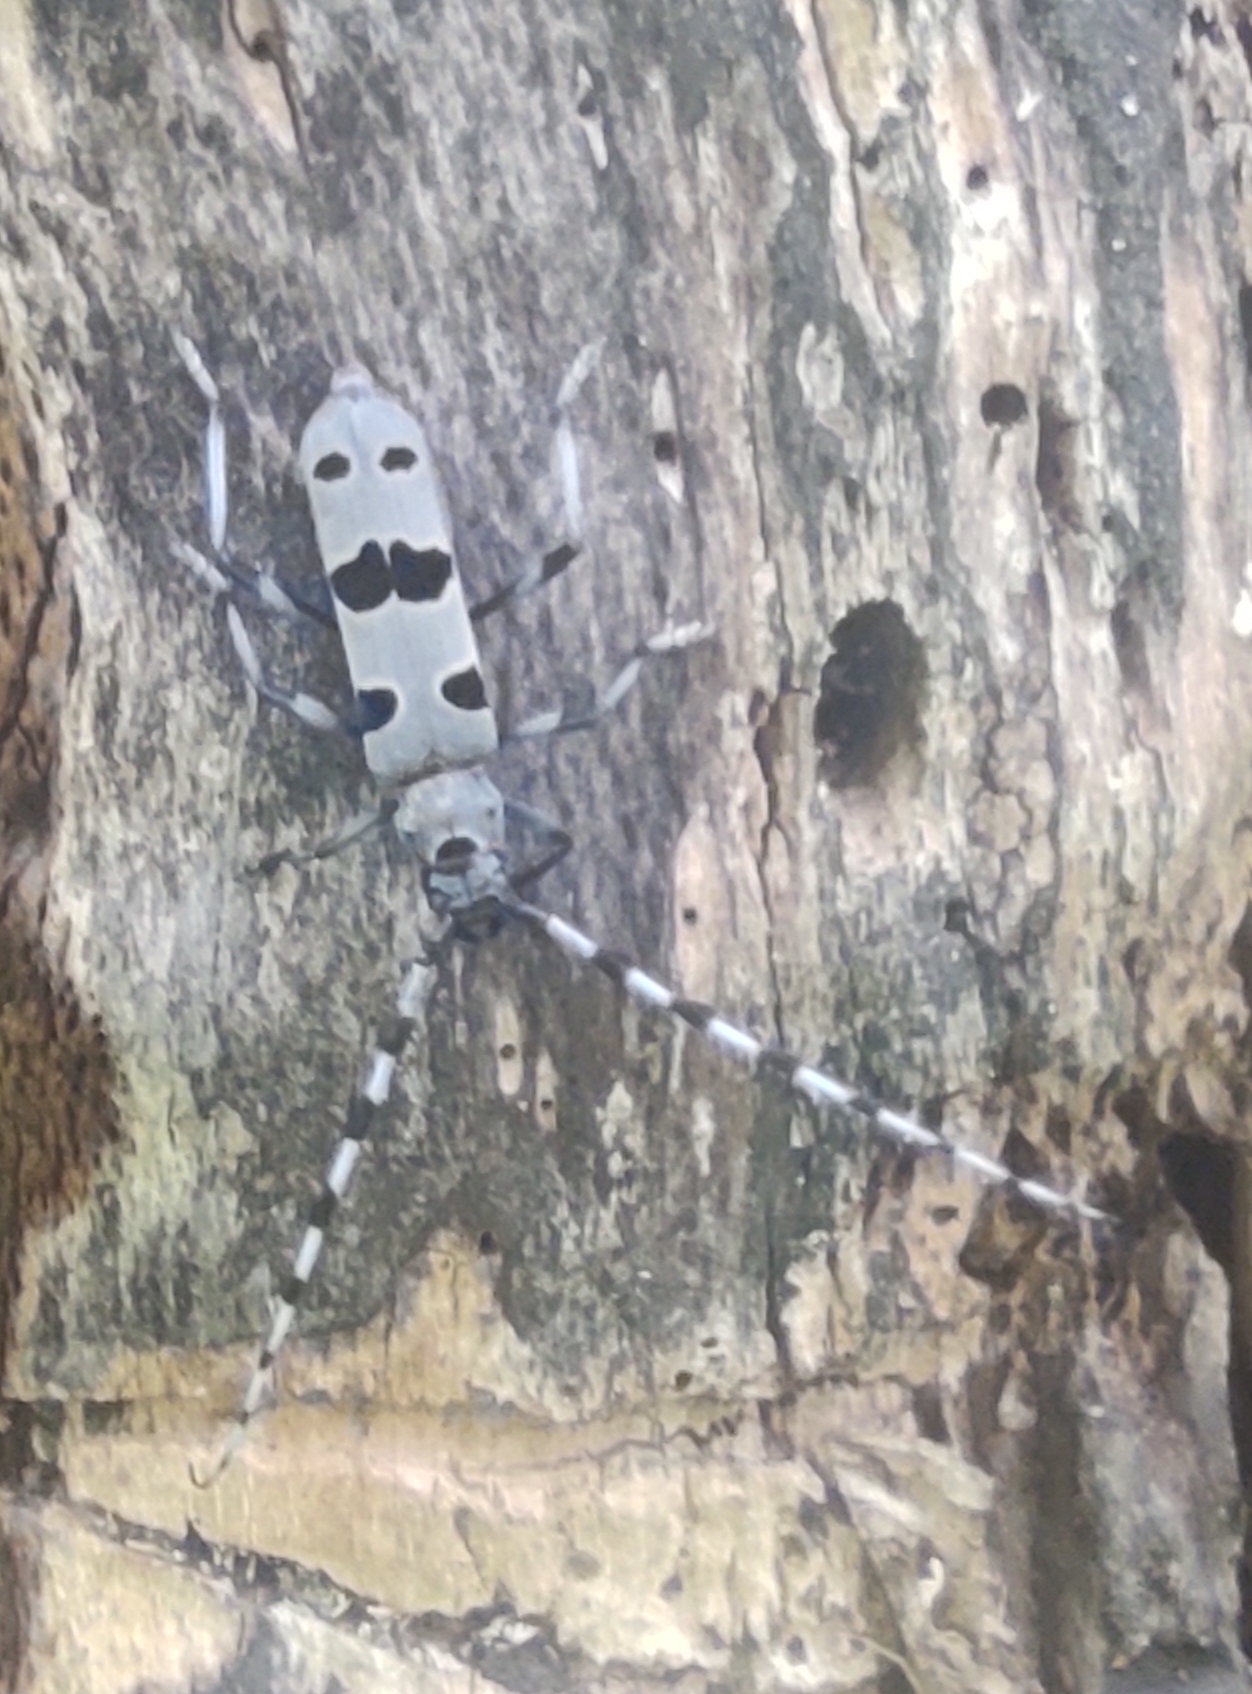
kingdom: Animalia
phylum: Arthropoda
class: Insecta
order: Coleoptera
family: Cerambycidae
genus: Rosalia
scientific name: Rosalia alpina
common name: Rosalia longicorn
